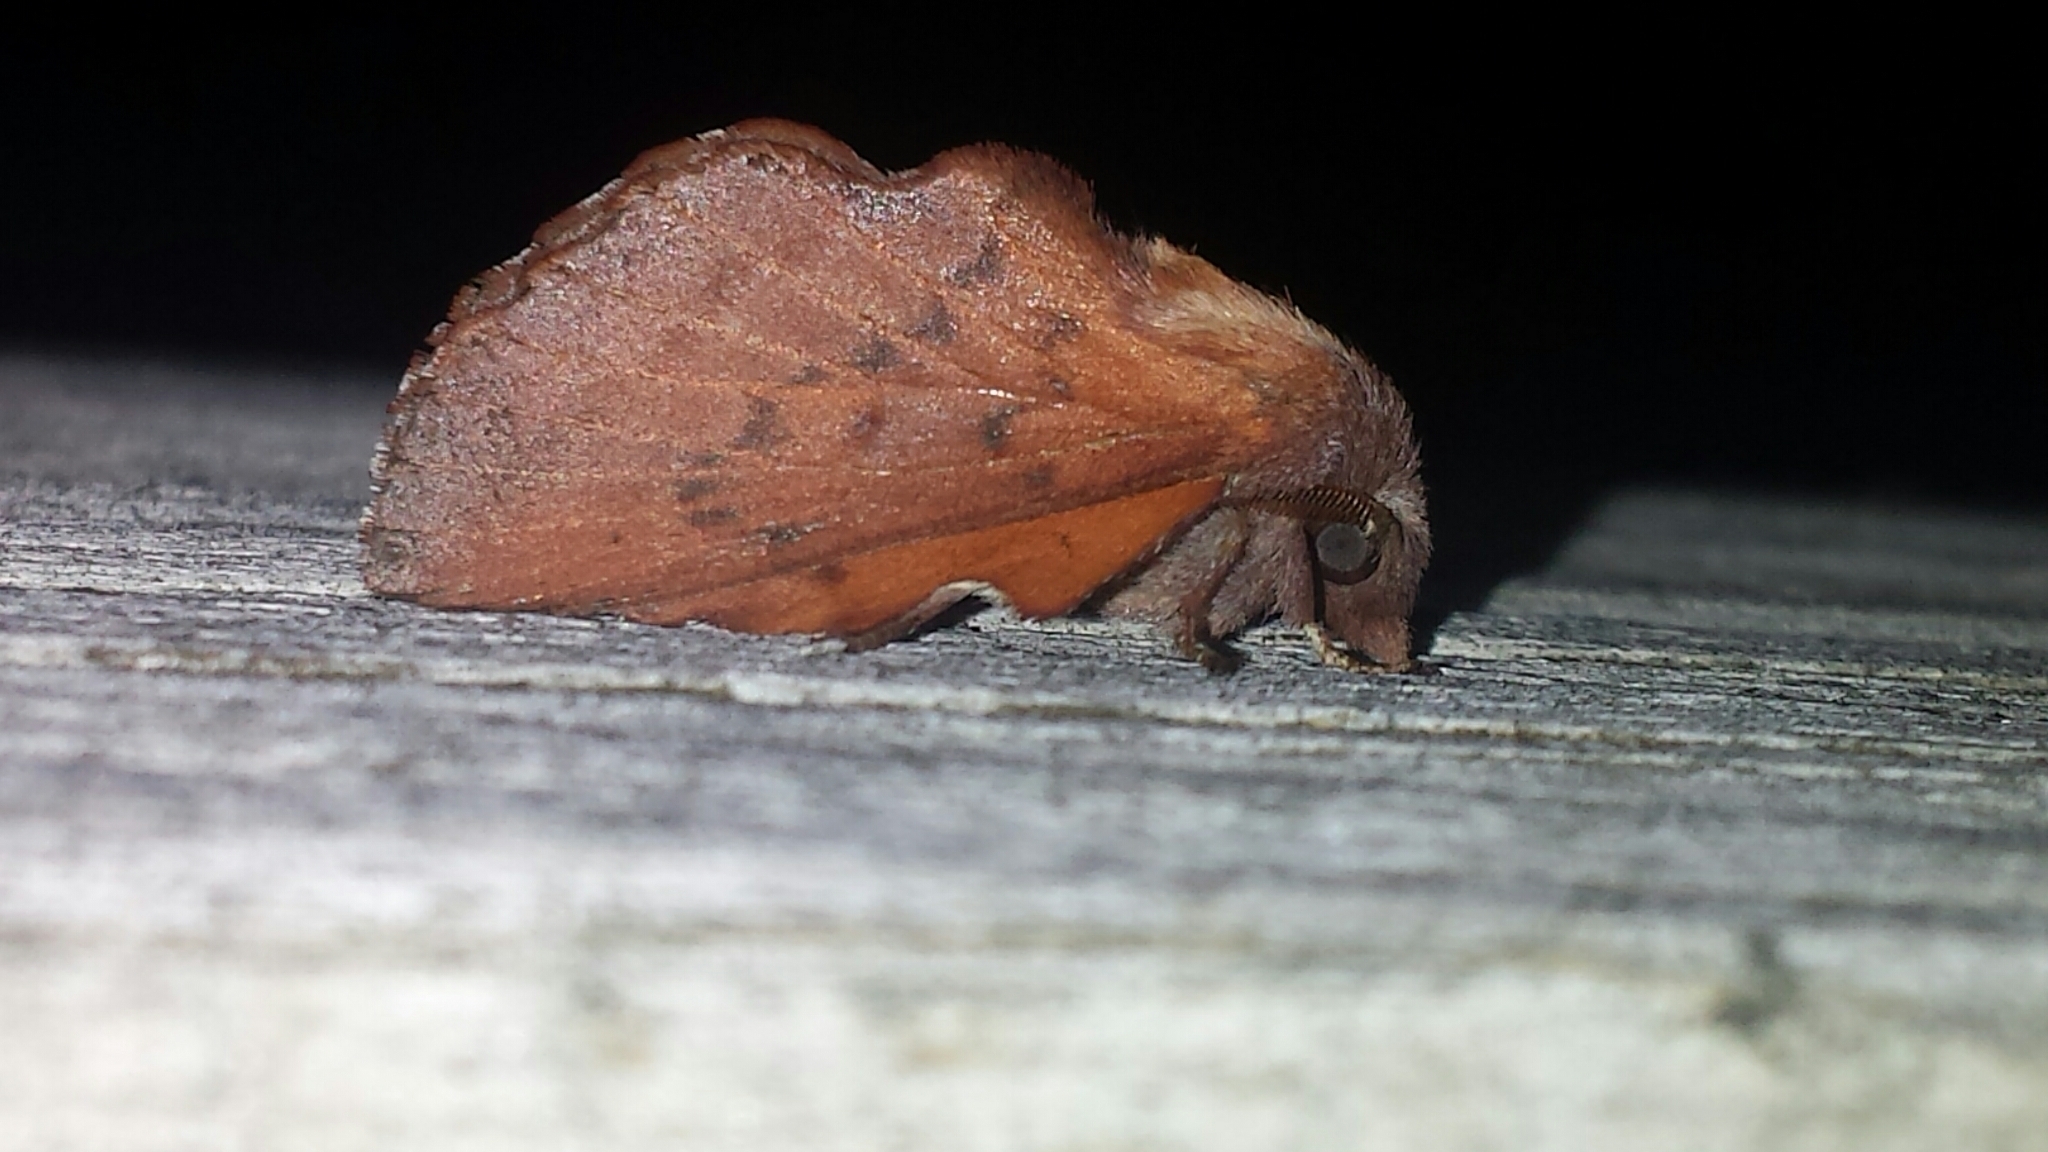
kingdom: Animalia
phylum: Arthropoda
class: Insecta
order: Lepidoptera
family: Lasiocampidae
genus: Phyllodesma
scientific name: Phyllodesma americana
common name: American lappet moth
